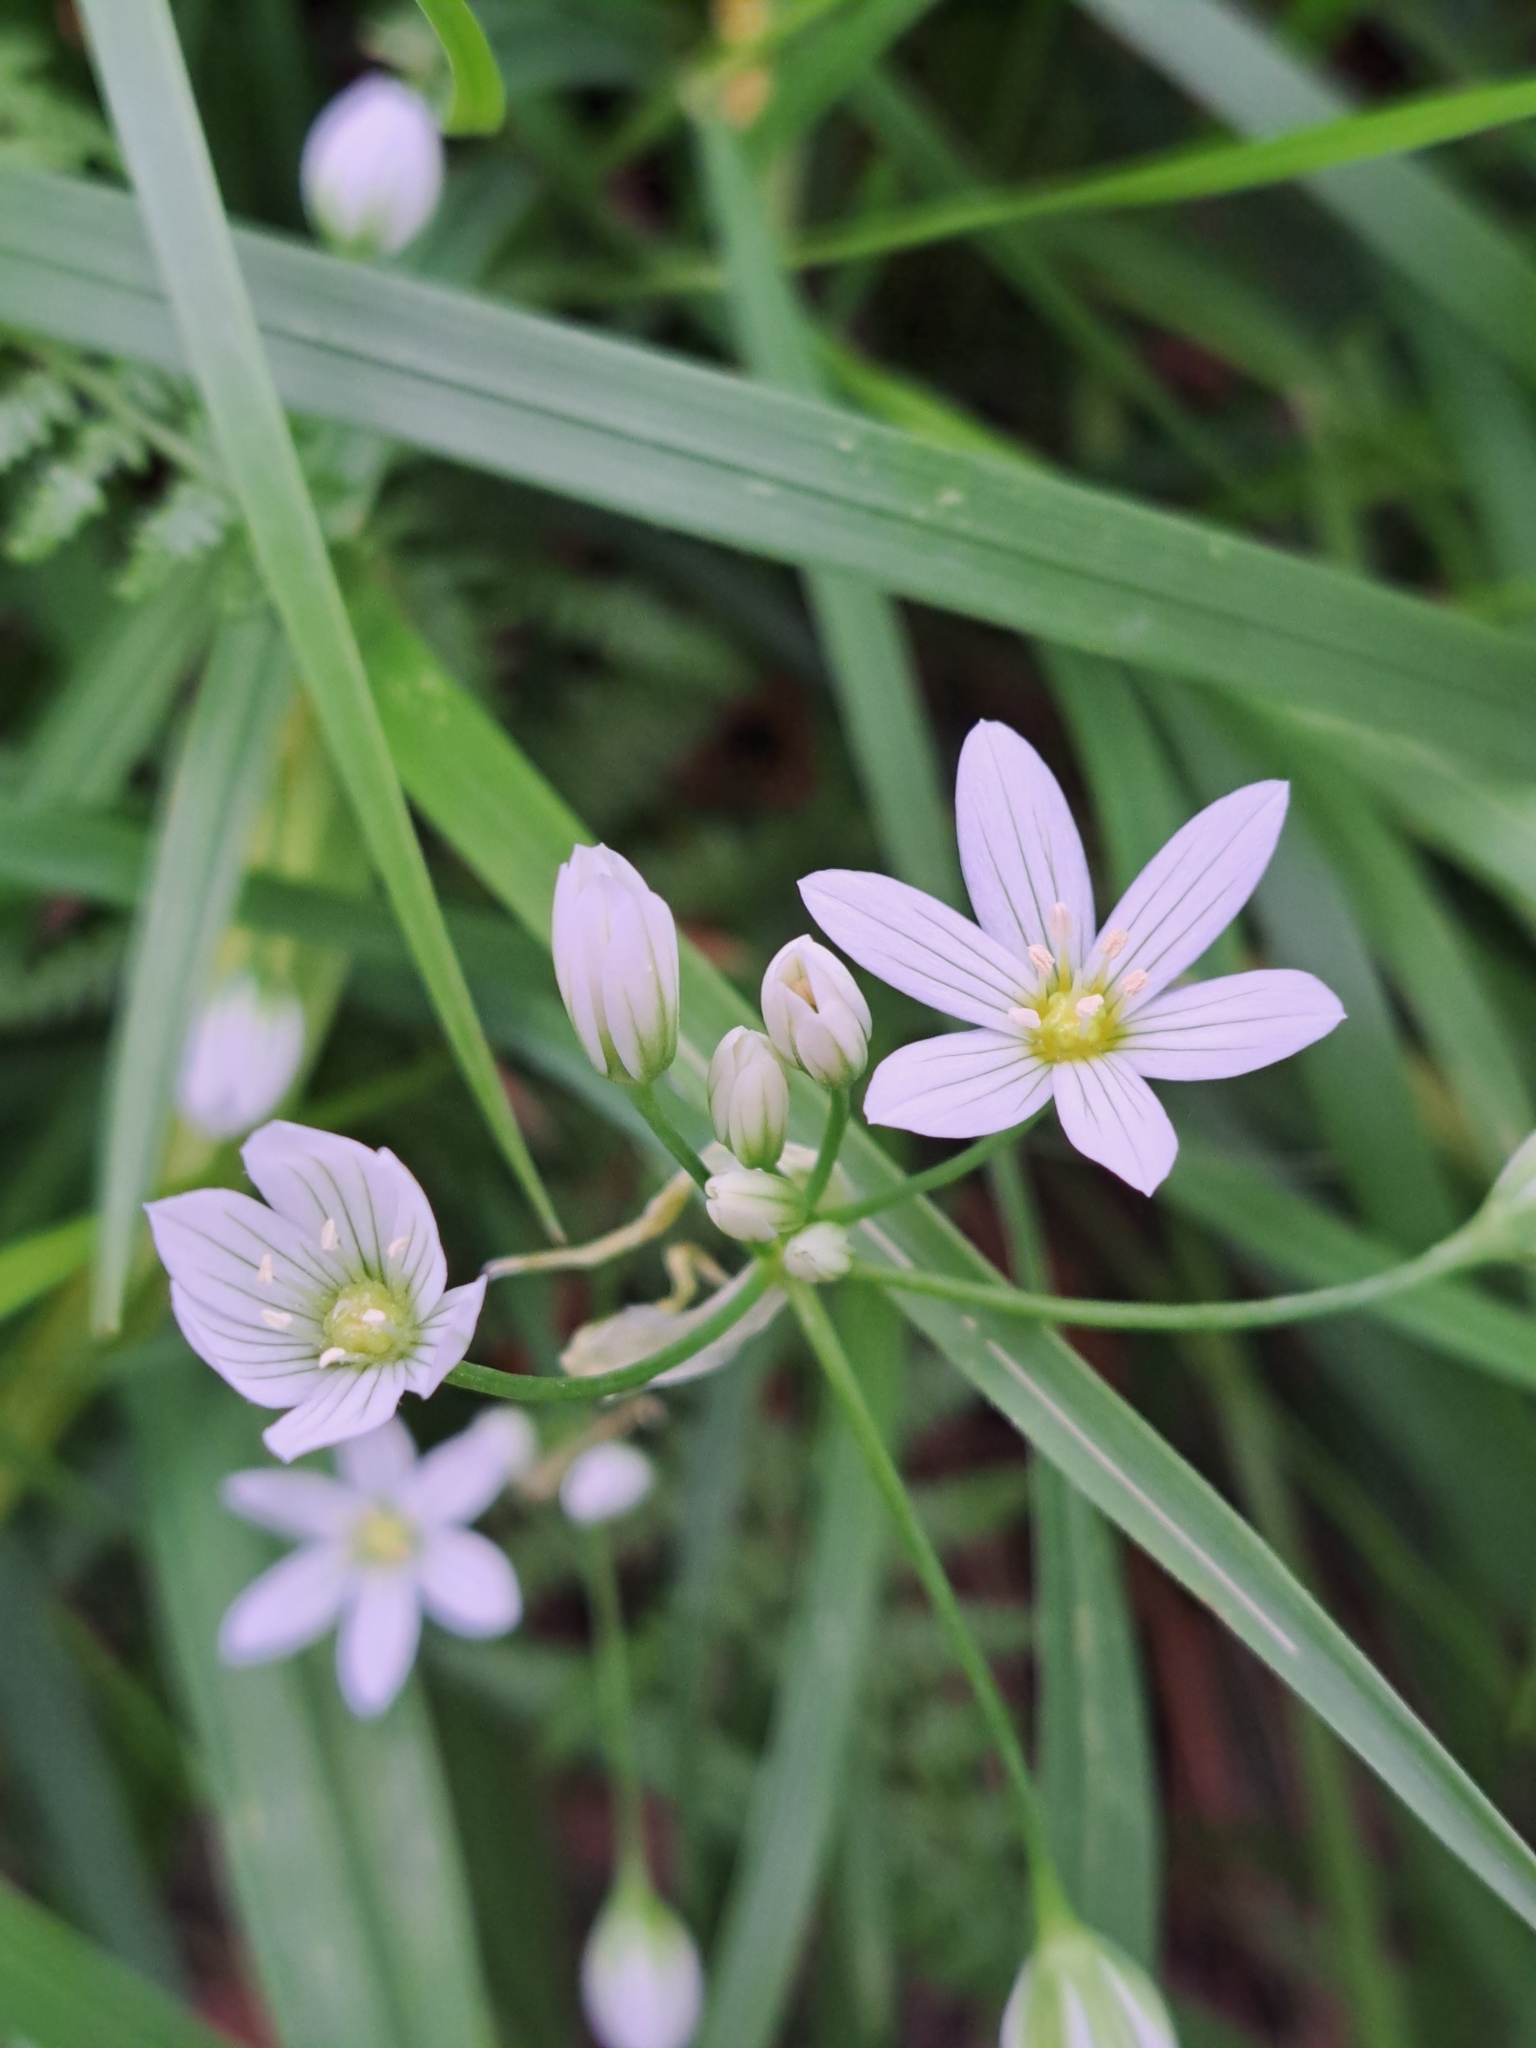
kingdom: Plantae
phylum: Tracheophyta
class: Liliopsida
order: Asparagales
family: Amaryllidaceae
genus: Allium
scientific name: Allium pendulinum
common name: Italian garlic
